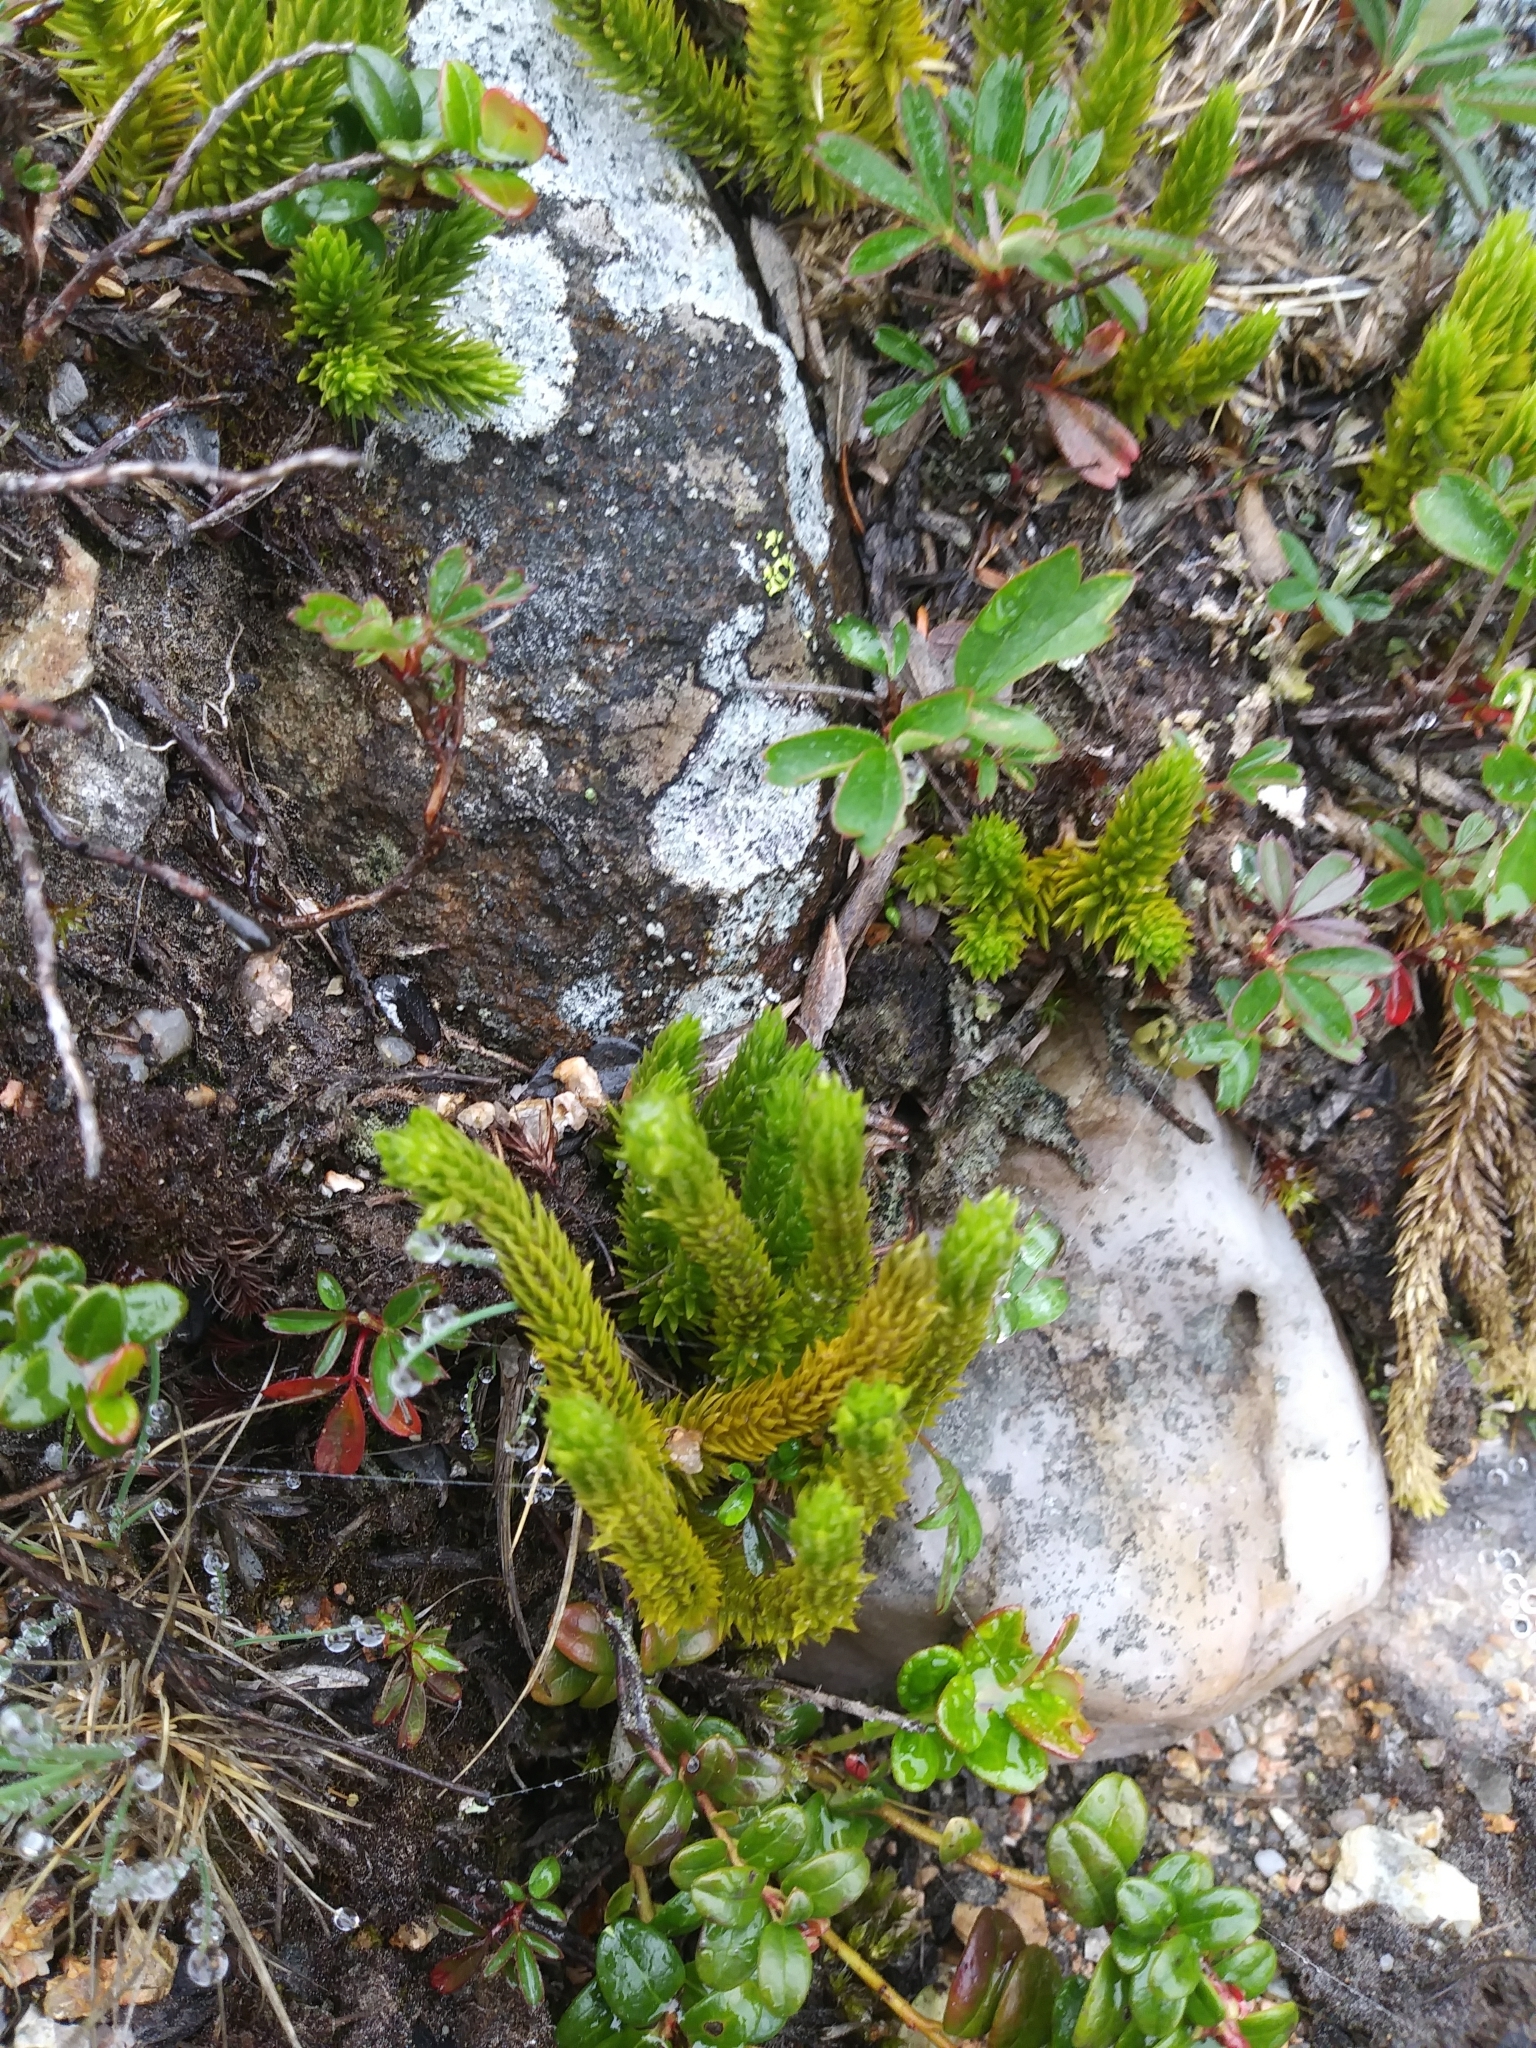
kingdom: Plantae
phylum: Tracheophyta
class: Lycopodiopsida
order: Lycopodiales
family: Lycopodiaceae
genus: Huperzia
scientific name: Huperzia selago
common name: Northern firmoss
